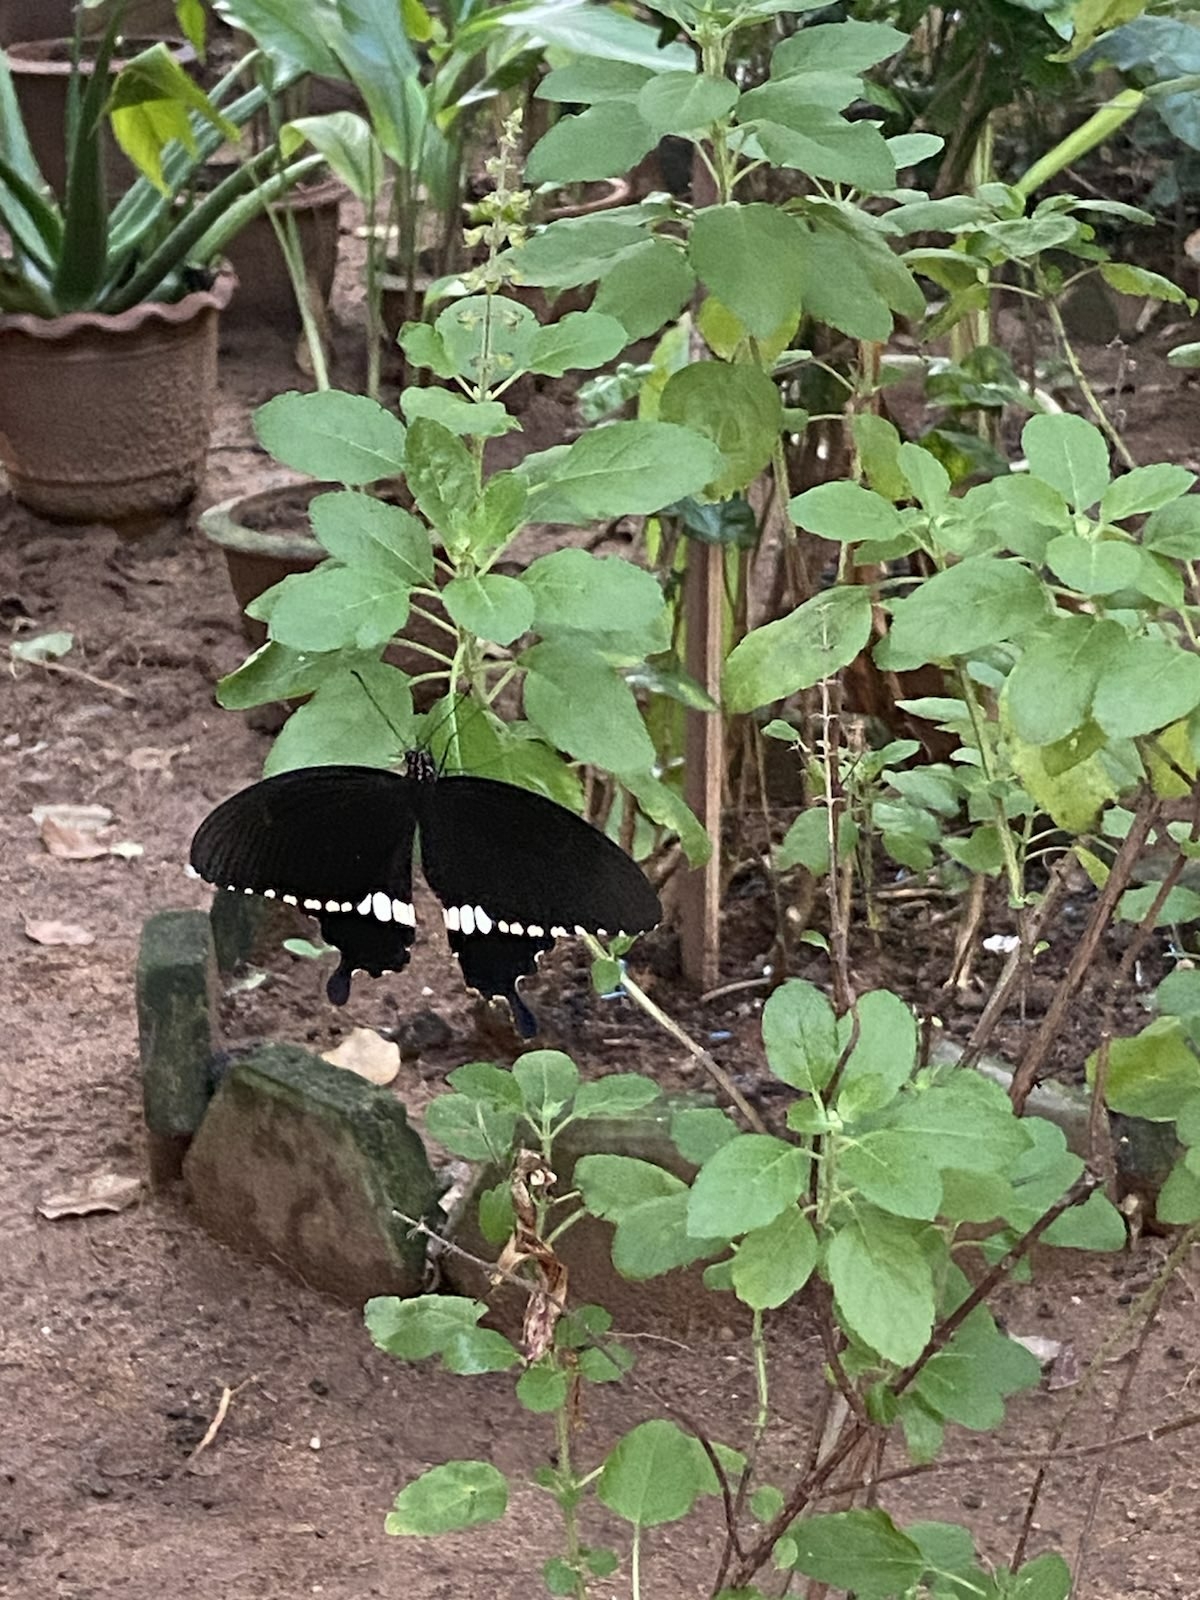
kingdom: Animalia
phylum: Arthropoda
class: Insecta
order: Lepidoptera
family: Papilionidae
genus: Papilio
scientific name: Papilio polytes
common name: Common mormon
